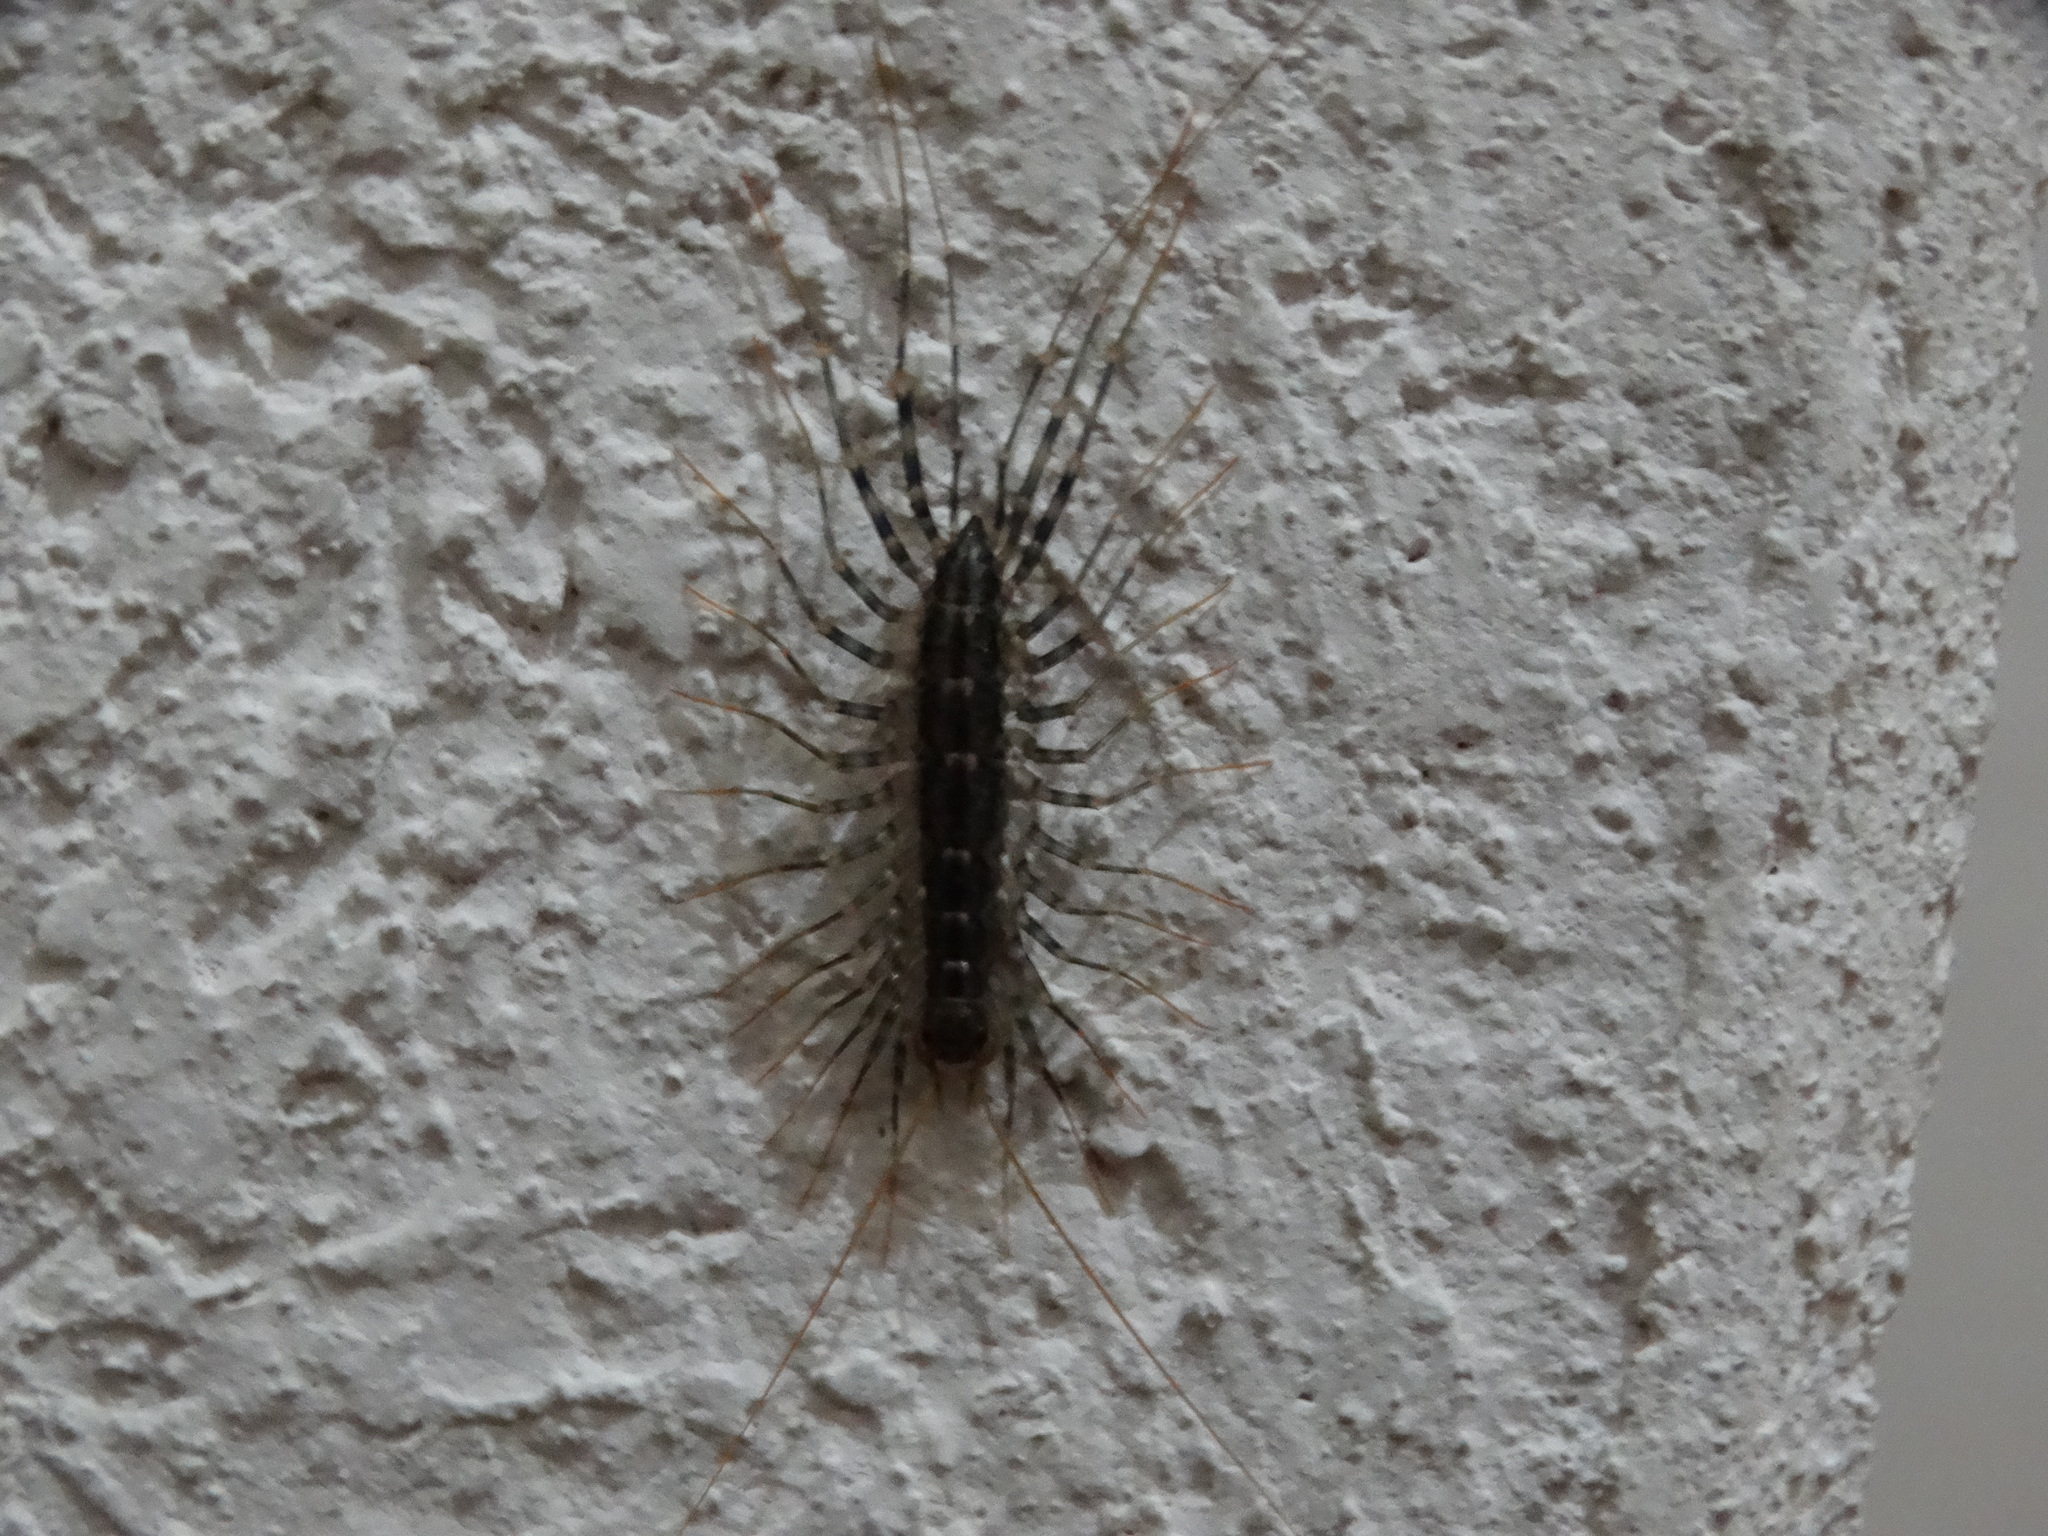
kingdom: Animalia
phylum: Arthropoda
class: Chilopoda
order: Scutigeromorpha
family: Scutigeridae
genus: Scutigera
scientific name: Scutigera coleoptrata
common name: House centipede
